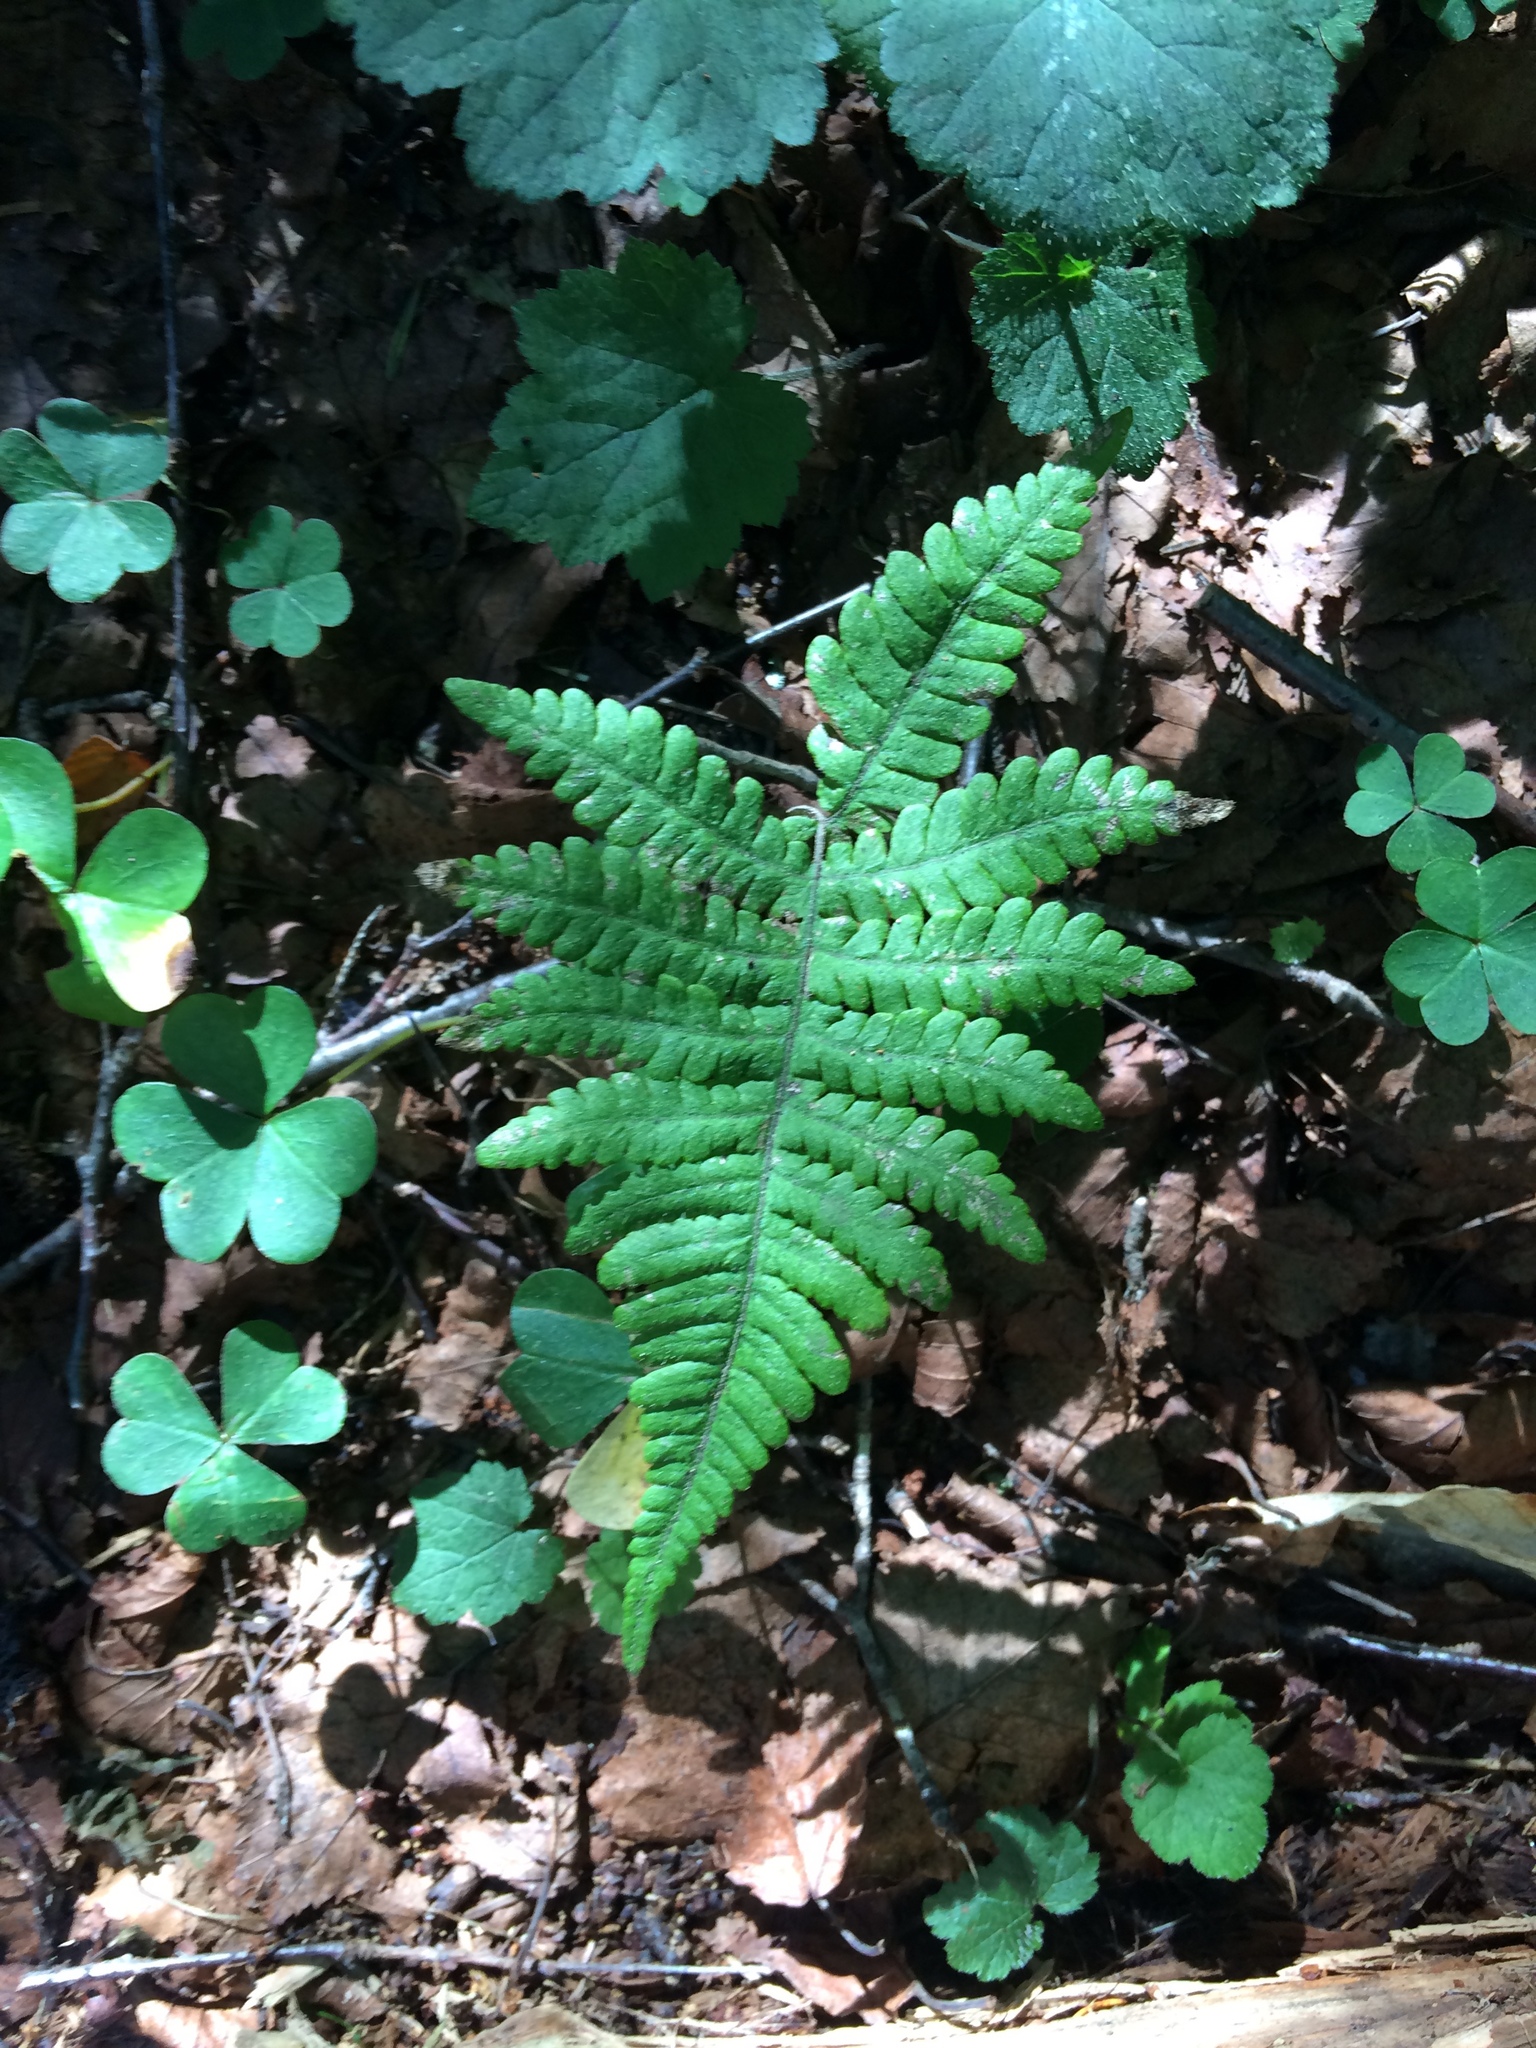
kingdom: Plantae
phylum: Tracheophyta
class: Polypodiopsida
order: Polypodiales
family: Thelypteridaceae
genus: Phegopteris
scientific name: Phegopteris connectilis
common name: Beech fern
